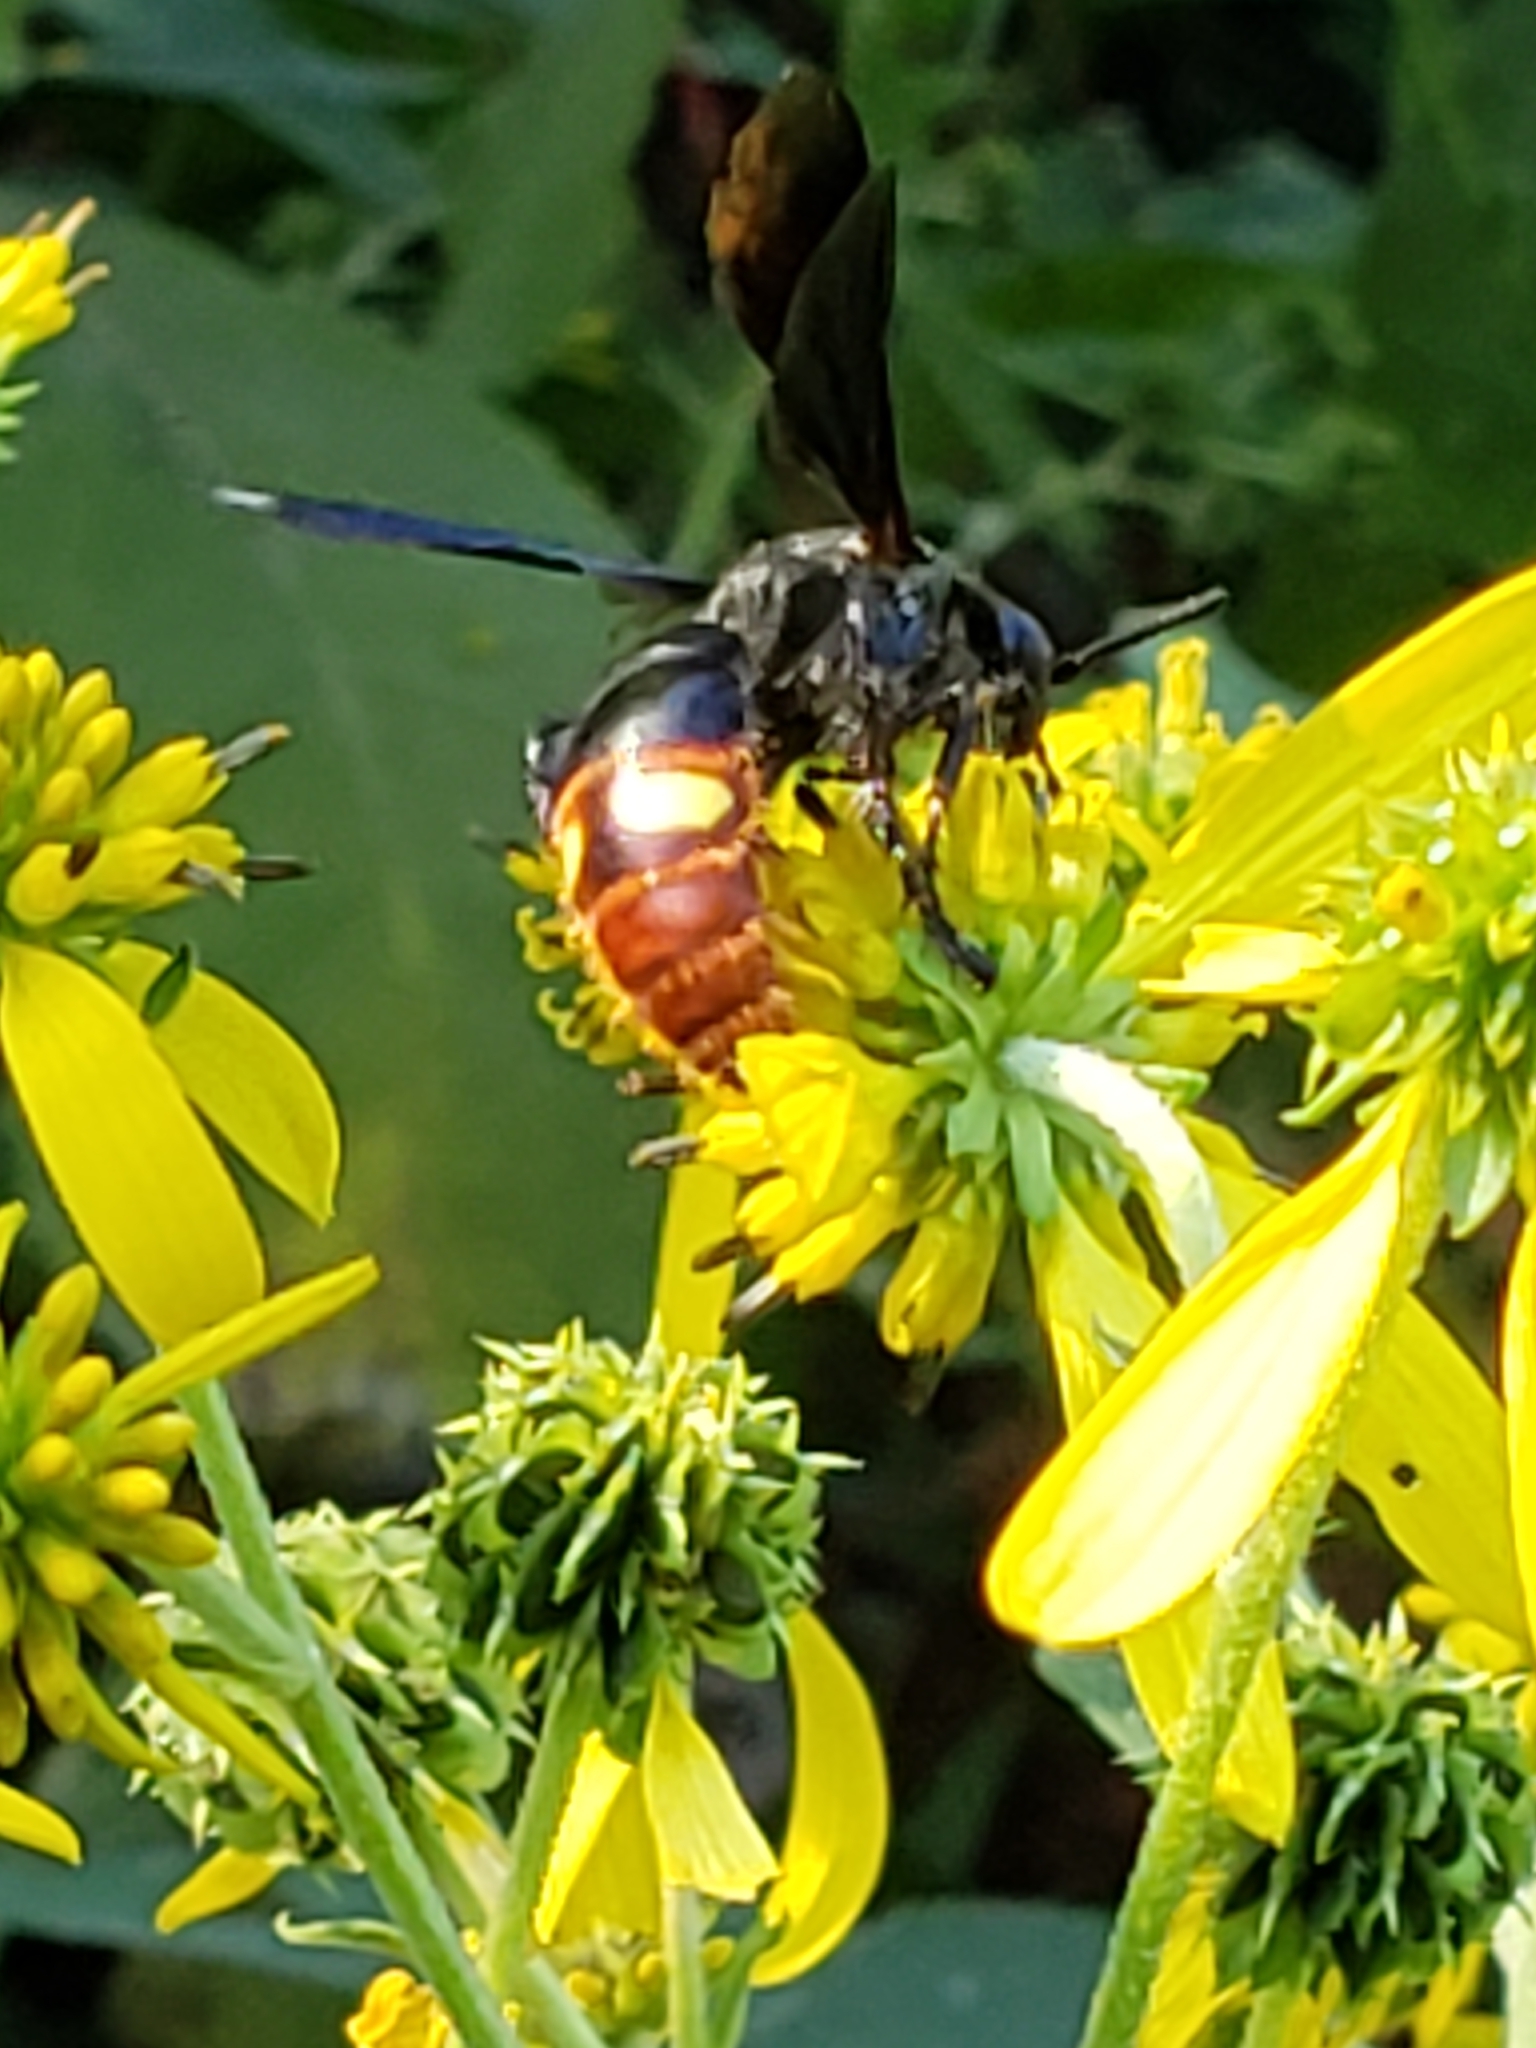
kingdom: Animalia
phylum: Arthropoda
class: Insecta
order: Hymenoptera
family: Scoliidae
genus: Scolia
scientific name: Scolia dubia
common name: Blue-winged scoliid wasp
